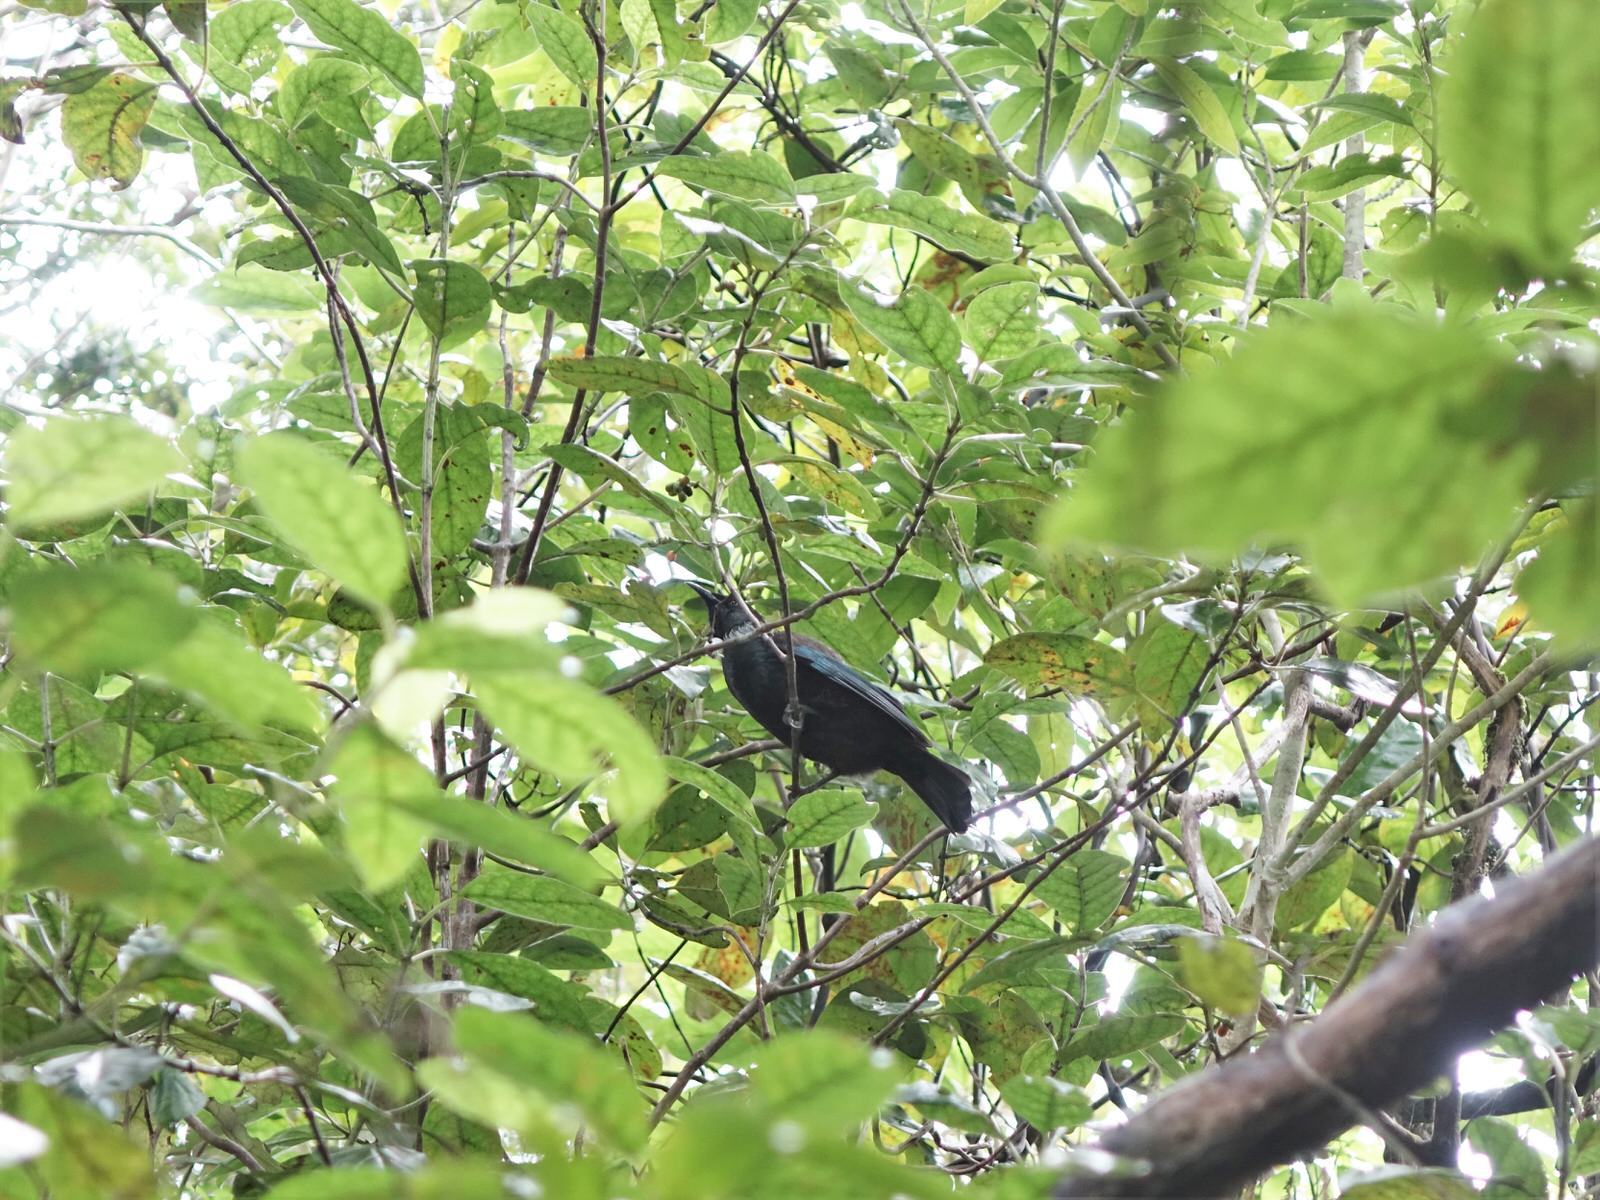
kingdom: Animalia
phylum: Chordata
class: Aves
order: Passeriformes
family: Meliphagidae
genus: Prosthemadera
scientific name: Prosthemadera novaeseelandiae
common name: Tui
